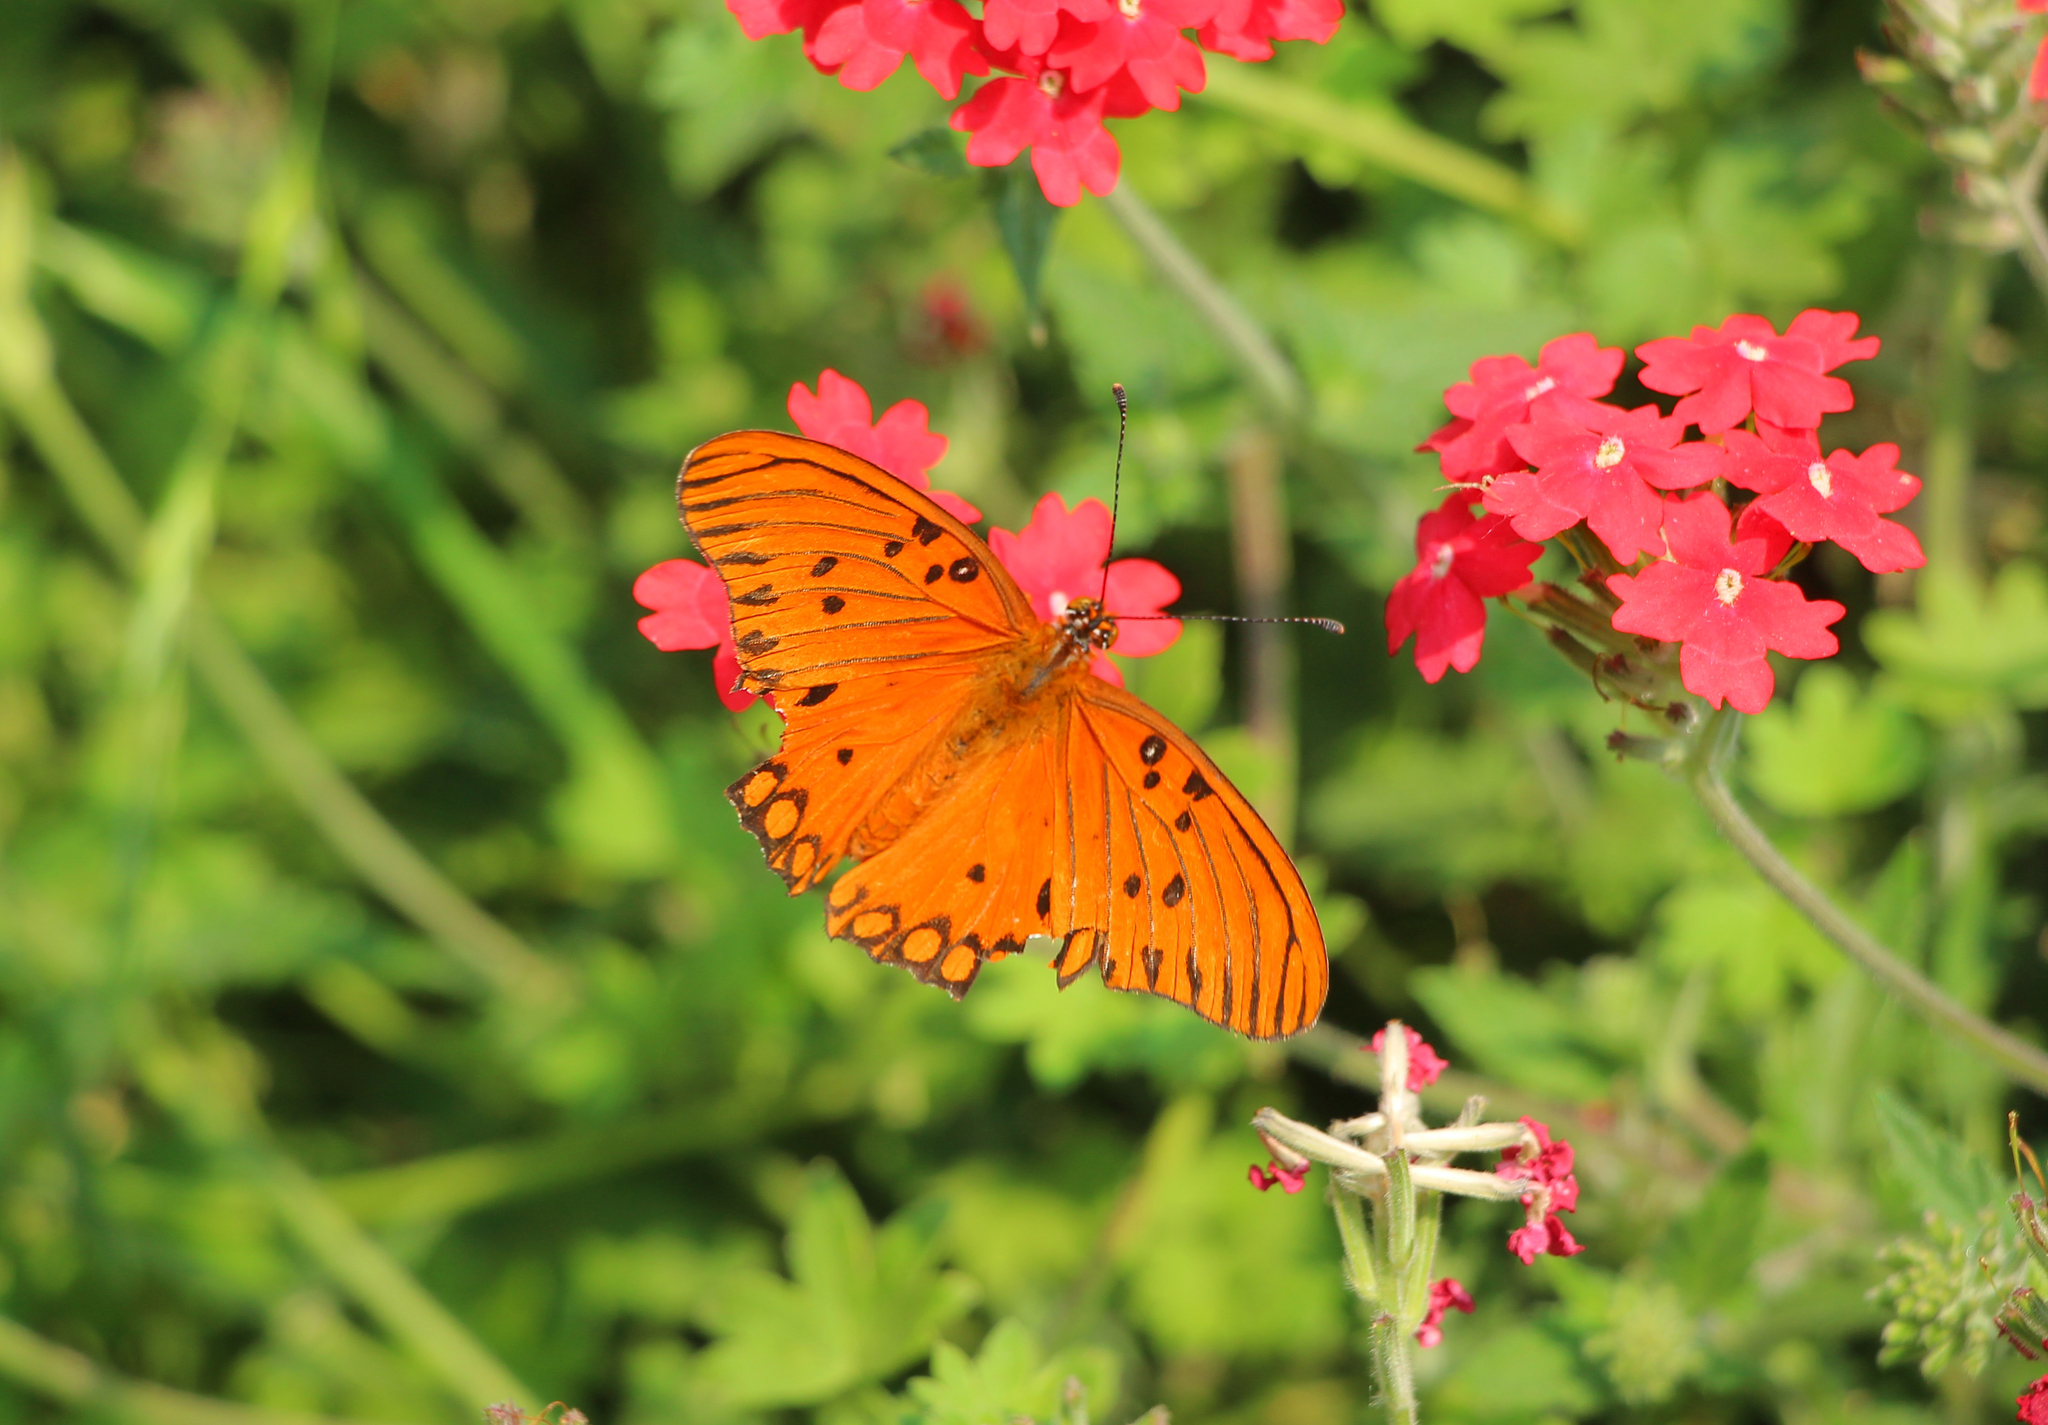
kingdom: Animalia
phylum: Arthropoda
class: Insecta
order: Lepidoptera
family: Nymphalidae
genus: Dione
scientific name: Dione vanillae
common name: Gulf fritillary
